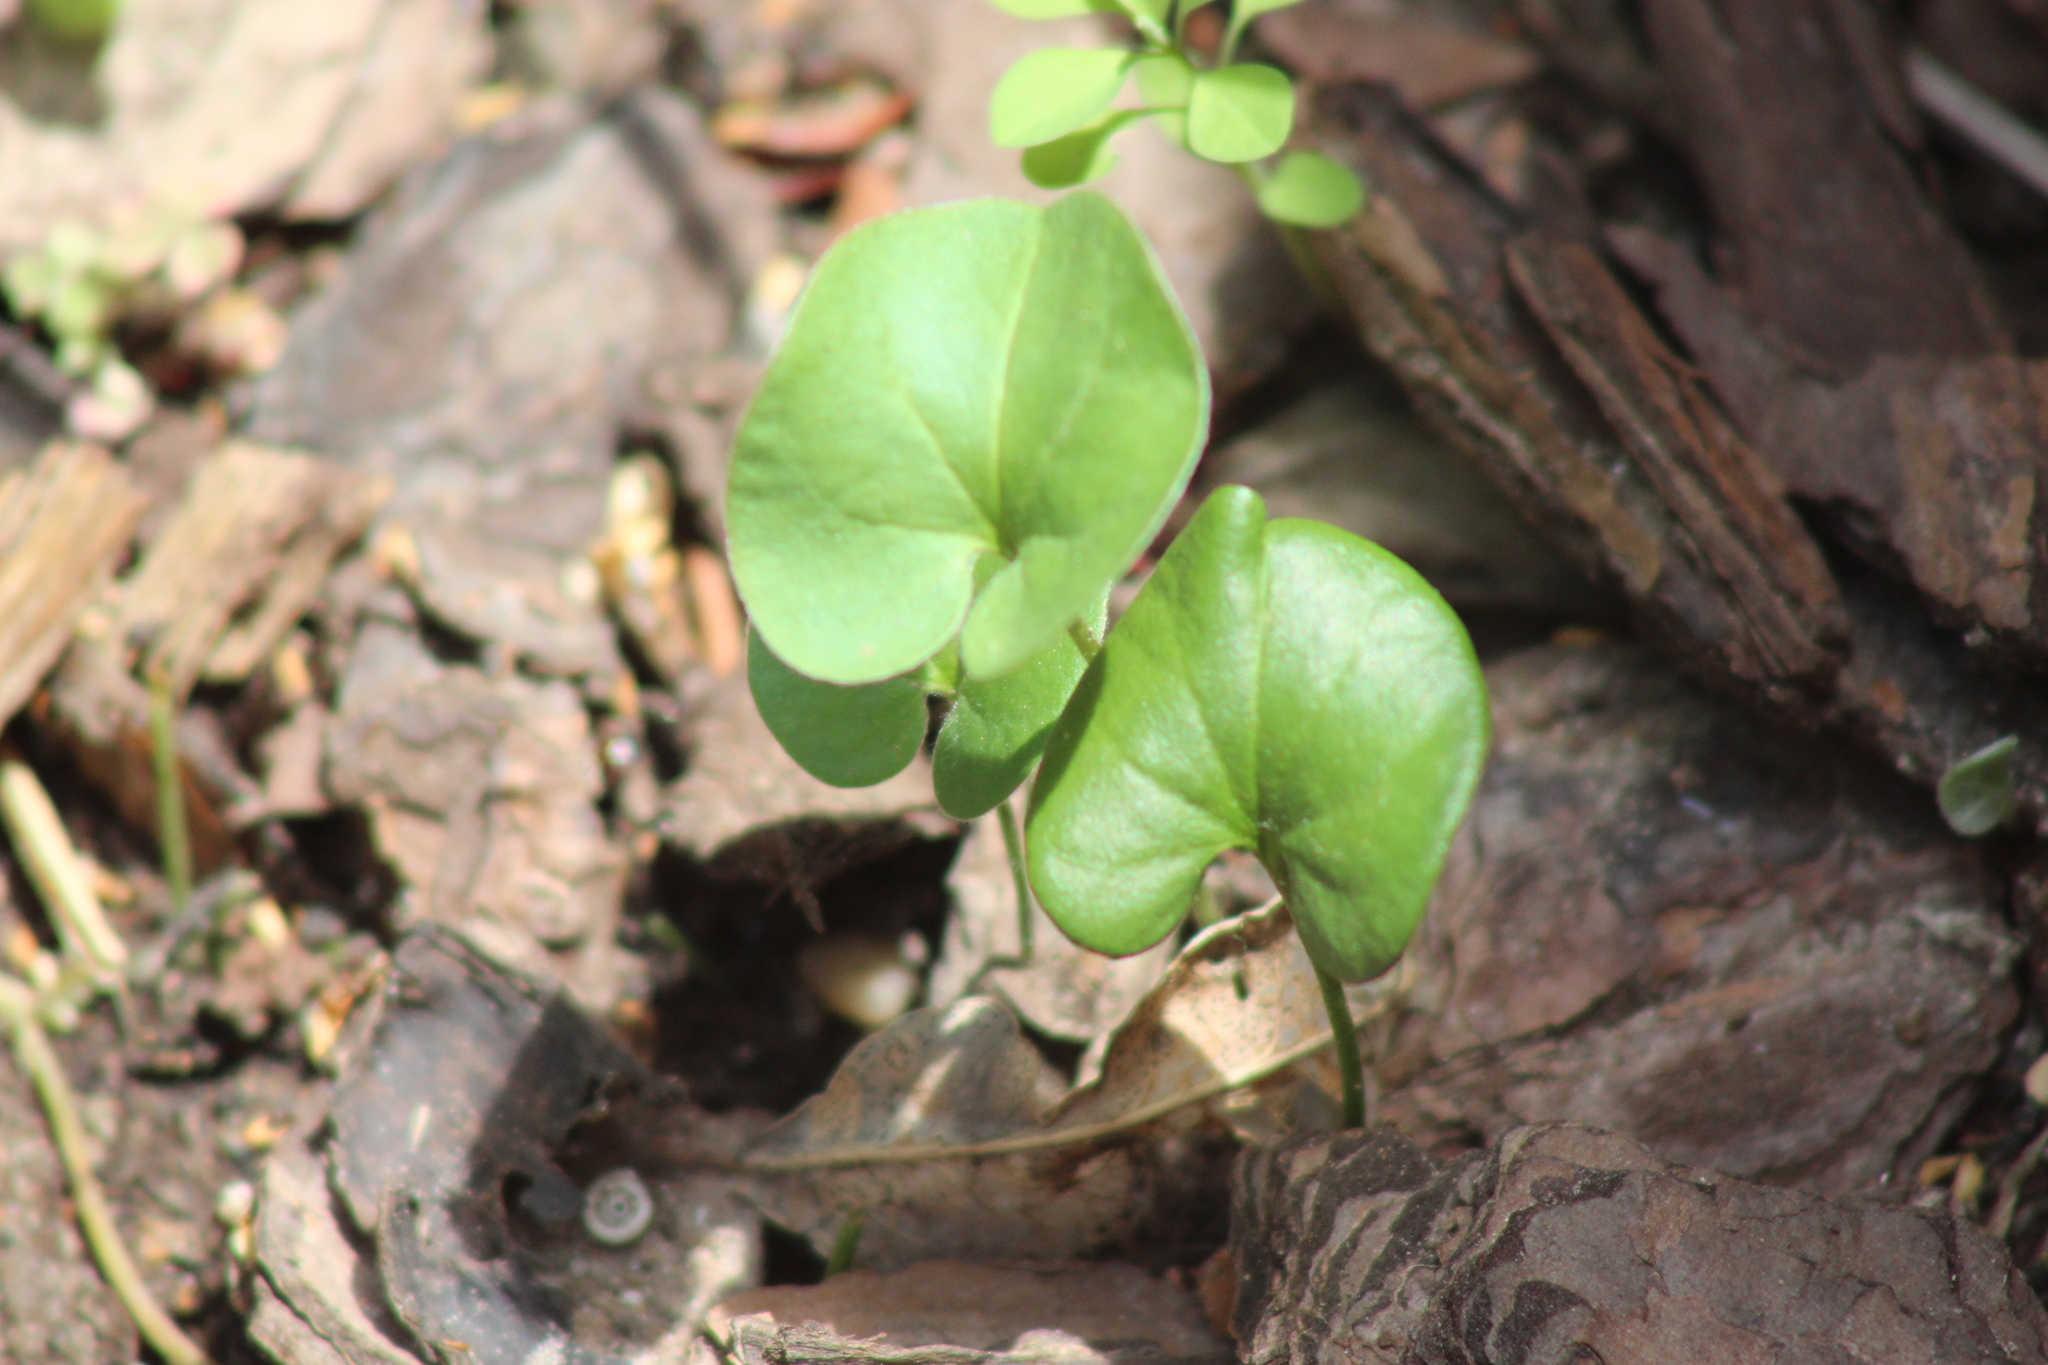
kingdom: Plantae
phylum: Tracheophyta
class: Magnoliopsida
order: Solanales
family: Convolvulaceae
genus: Dichondra
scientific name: Dichondra micrantha
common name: Kidneyweed
